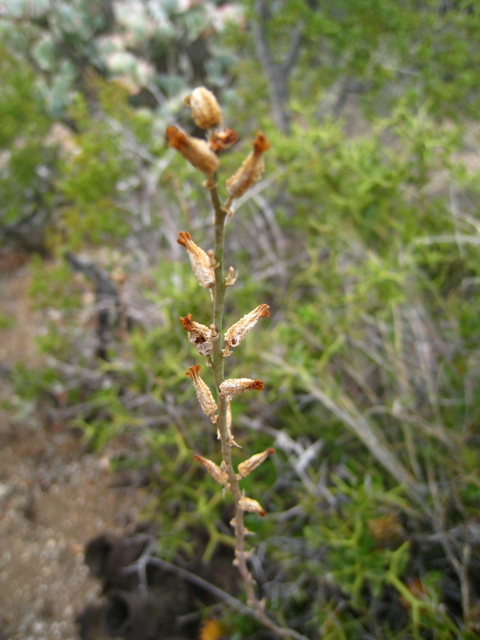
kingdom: Plantae
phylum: Tracheophyta
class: Liliopsida
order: Asparagales
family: Asphodelaceae
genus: Astroloba
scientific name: Astroloba spiralis
